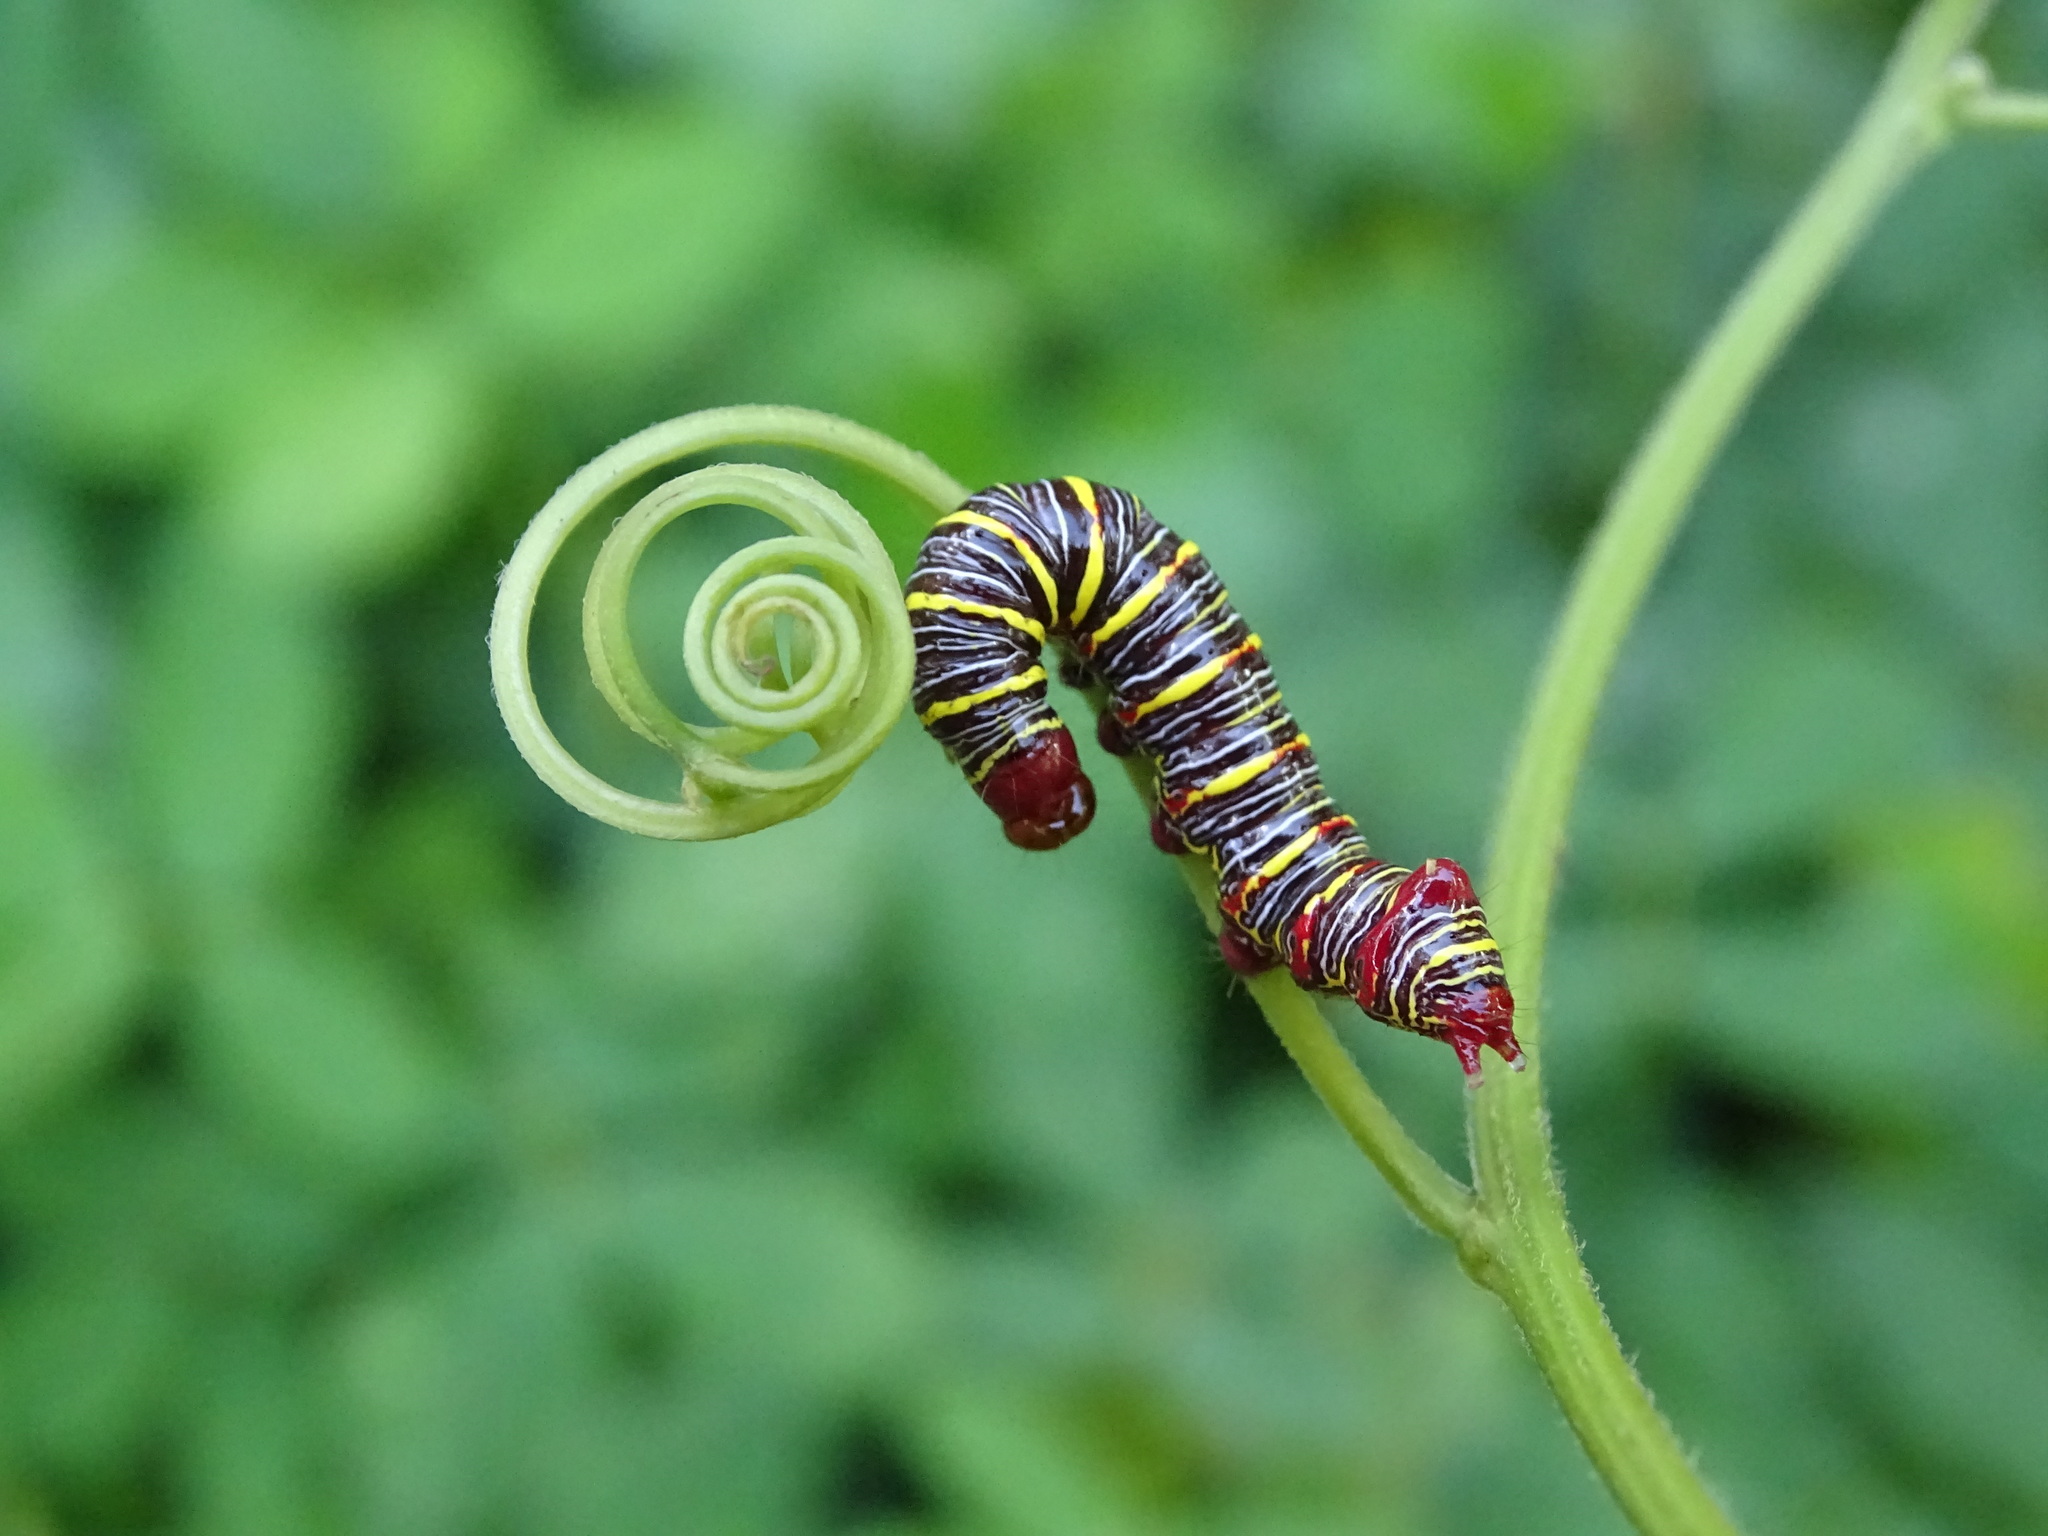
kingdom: Animalia
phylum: Arthropoda
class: Insecta
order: Lepidoptera
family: Notodontidae
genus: Didugua
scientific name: Didugua argentilinea
